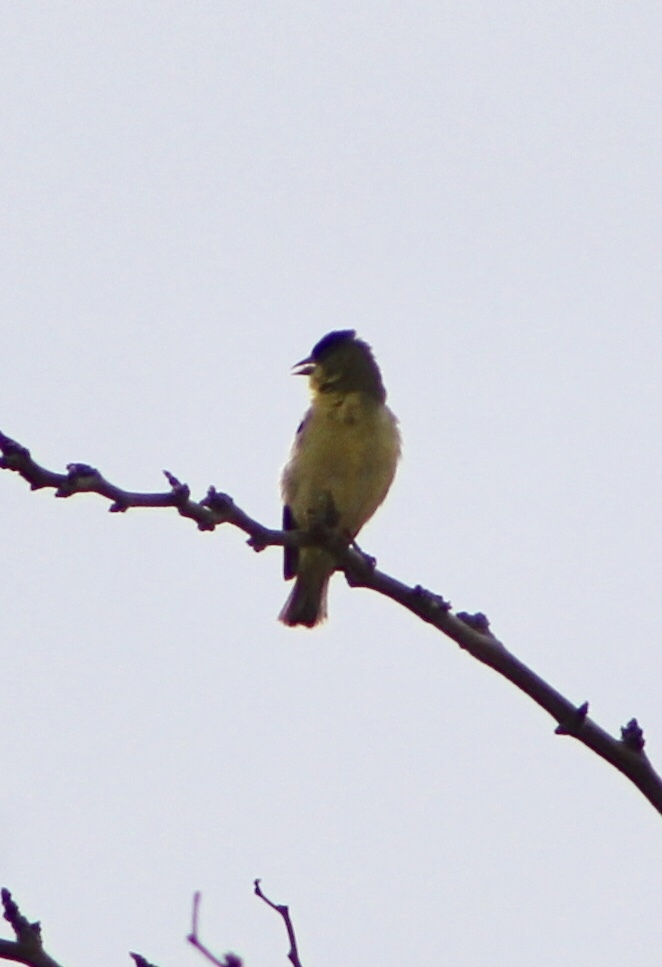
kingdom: Animalia
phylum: Chordata
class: Aves
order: Passeriformes
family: Fringillidae
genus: Spinus
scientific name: Spinus psaltria
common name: Lesser goldfinch
